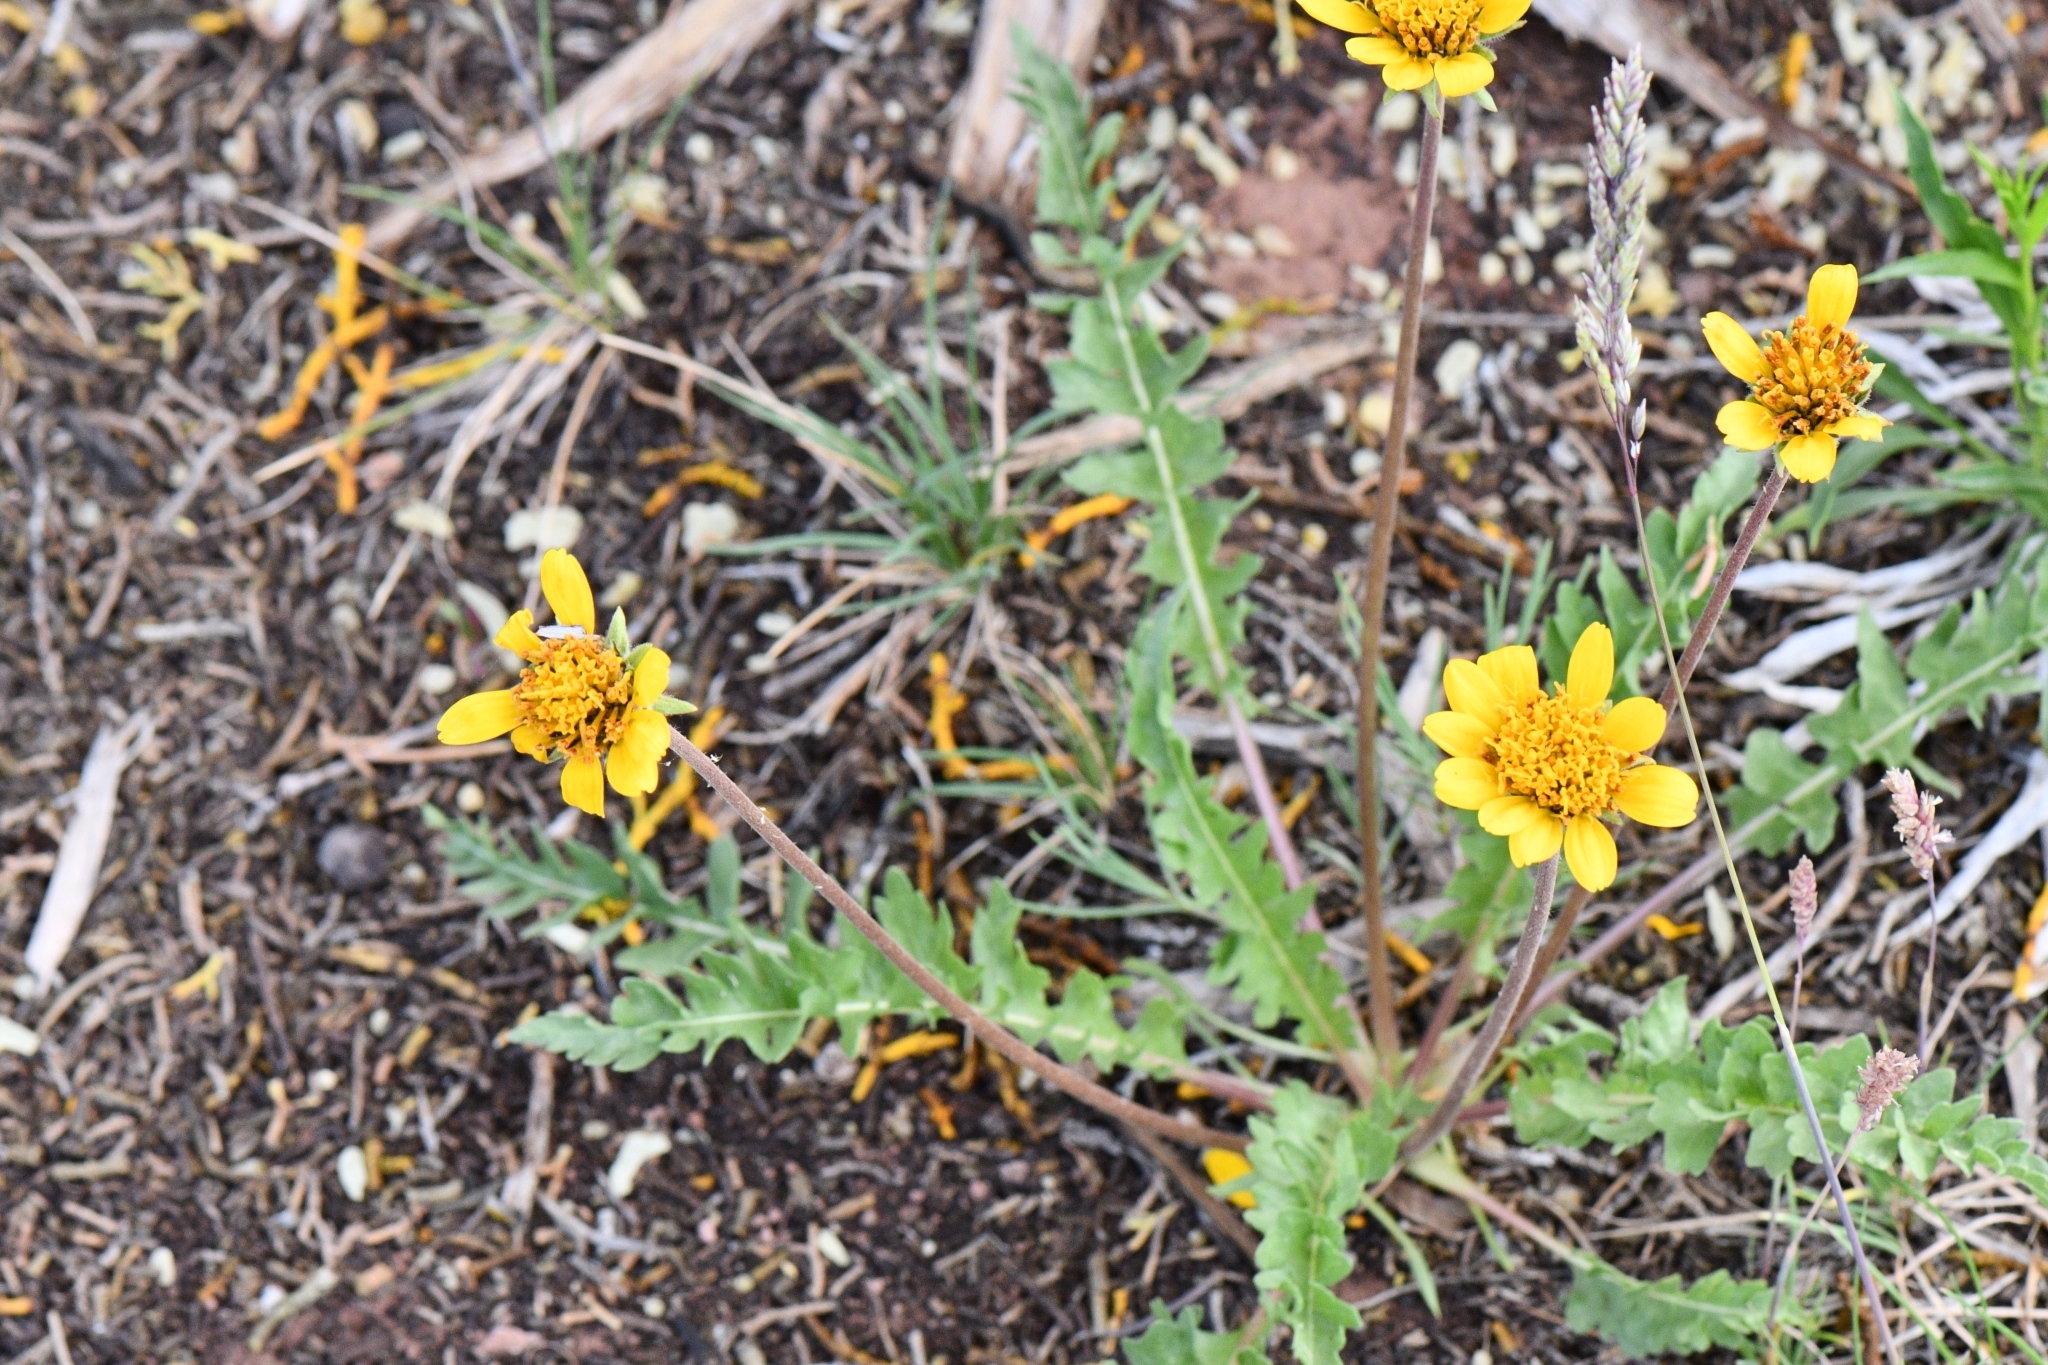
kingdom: Plantae
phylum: Tracheophyta
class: Magnoliopsida
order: Asterales
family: Asteraceae
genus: Balsamorhiza
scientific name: Balsamorhiza hookeri
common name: Hooker's balsamroot
